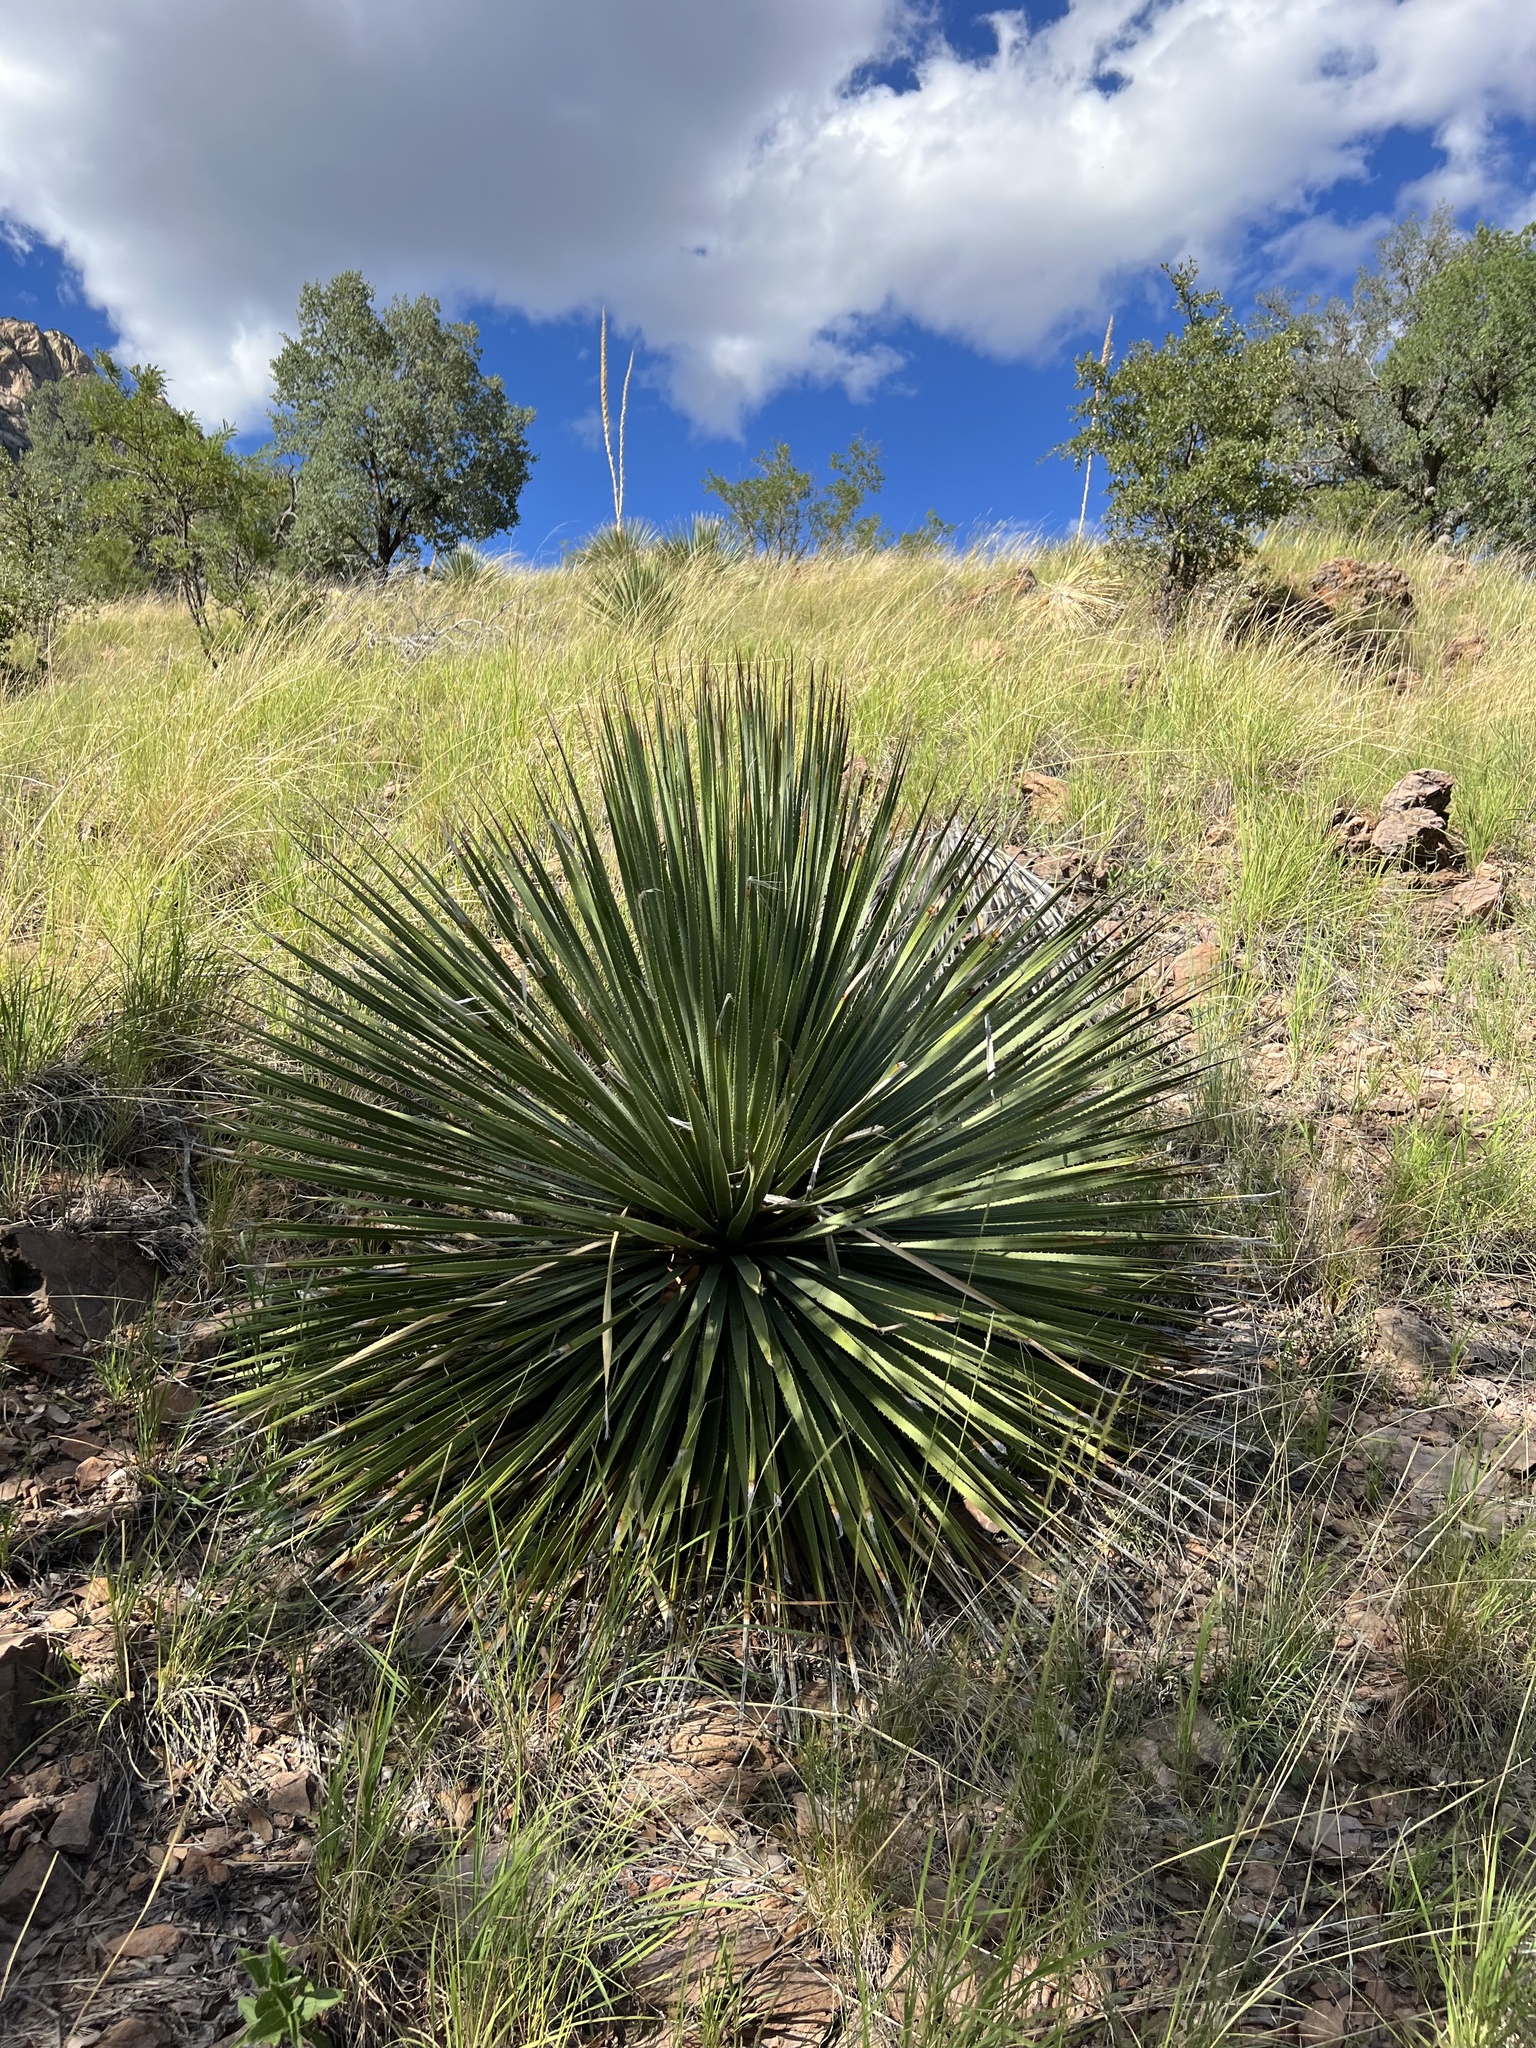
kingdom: Plantae
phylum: Tracheophyta
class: Liliopsida
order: Asparagales
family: Asparagaceae
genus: Dasylirion
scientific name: Dasylirion wheeleri
